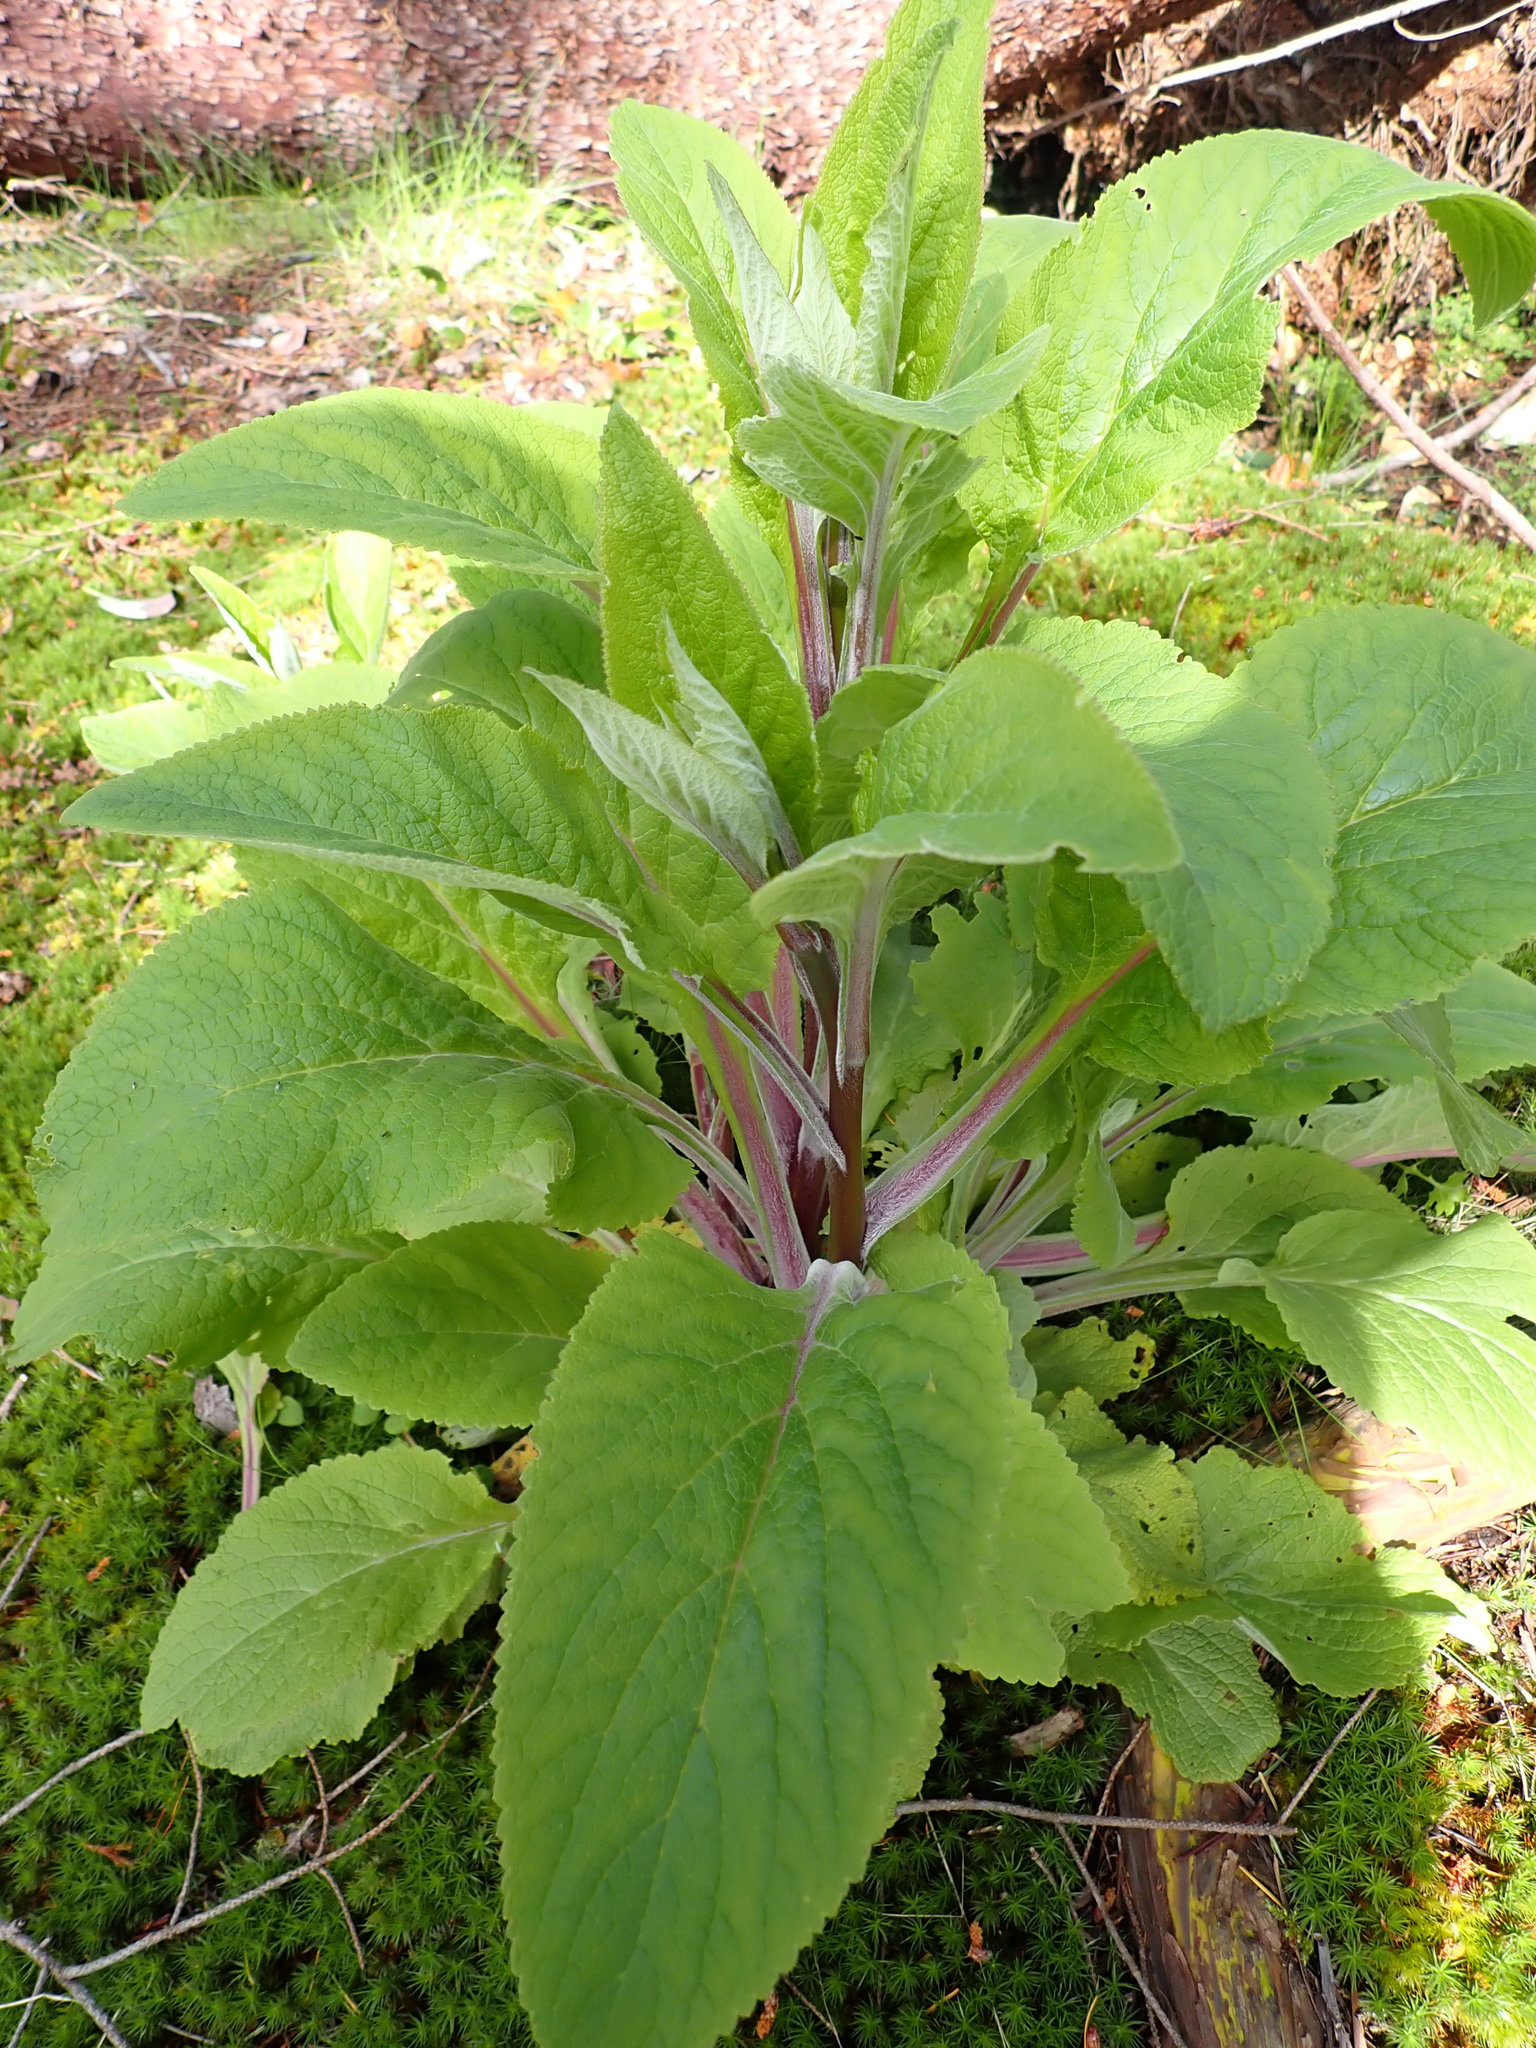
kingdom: Plantae
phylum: Tracheophyta
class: Magnoliopsida
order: Lamiales
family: Plantaginaceae
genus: Digitalis
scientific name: Digitalis purpurea
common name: Foxglove
